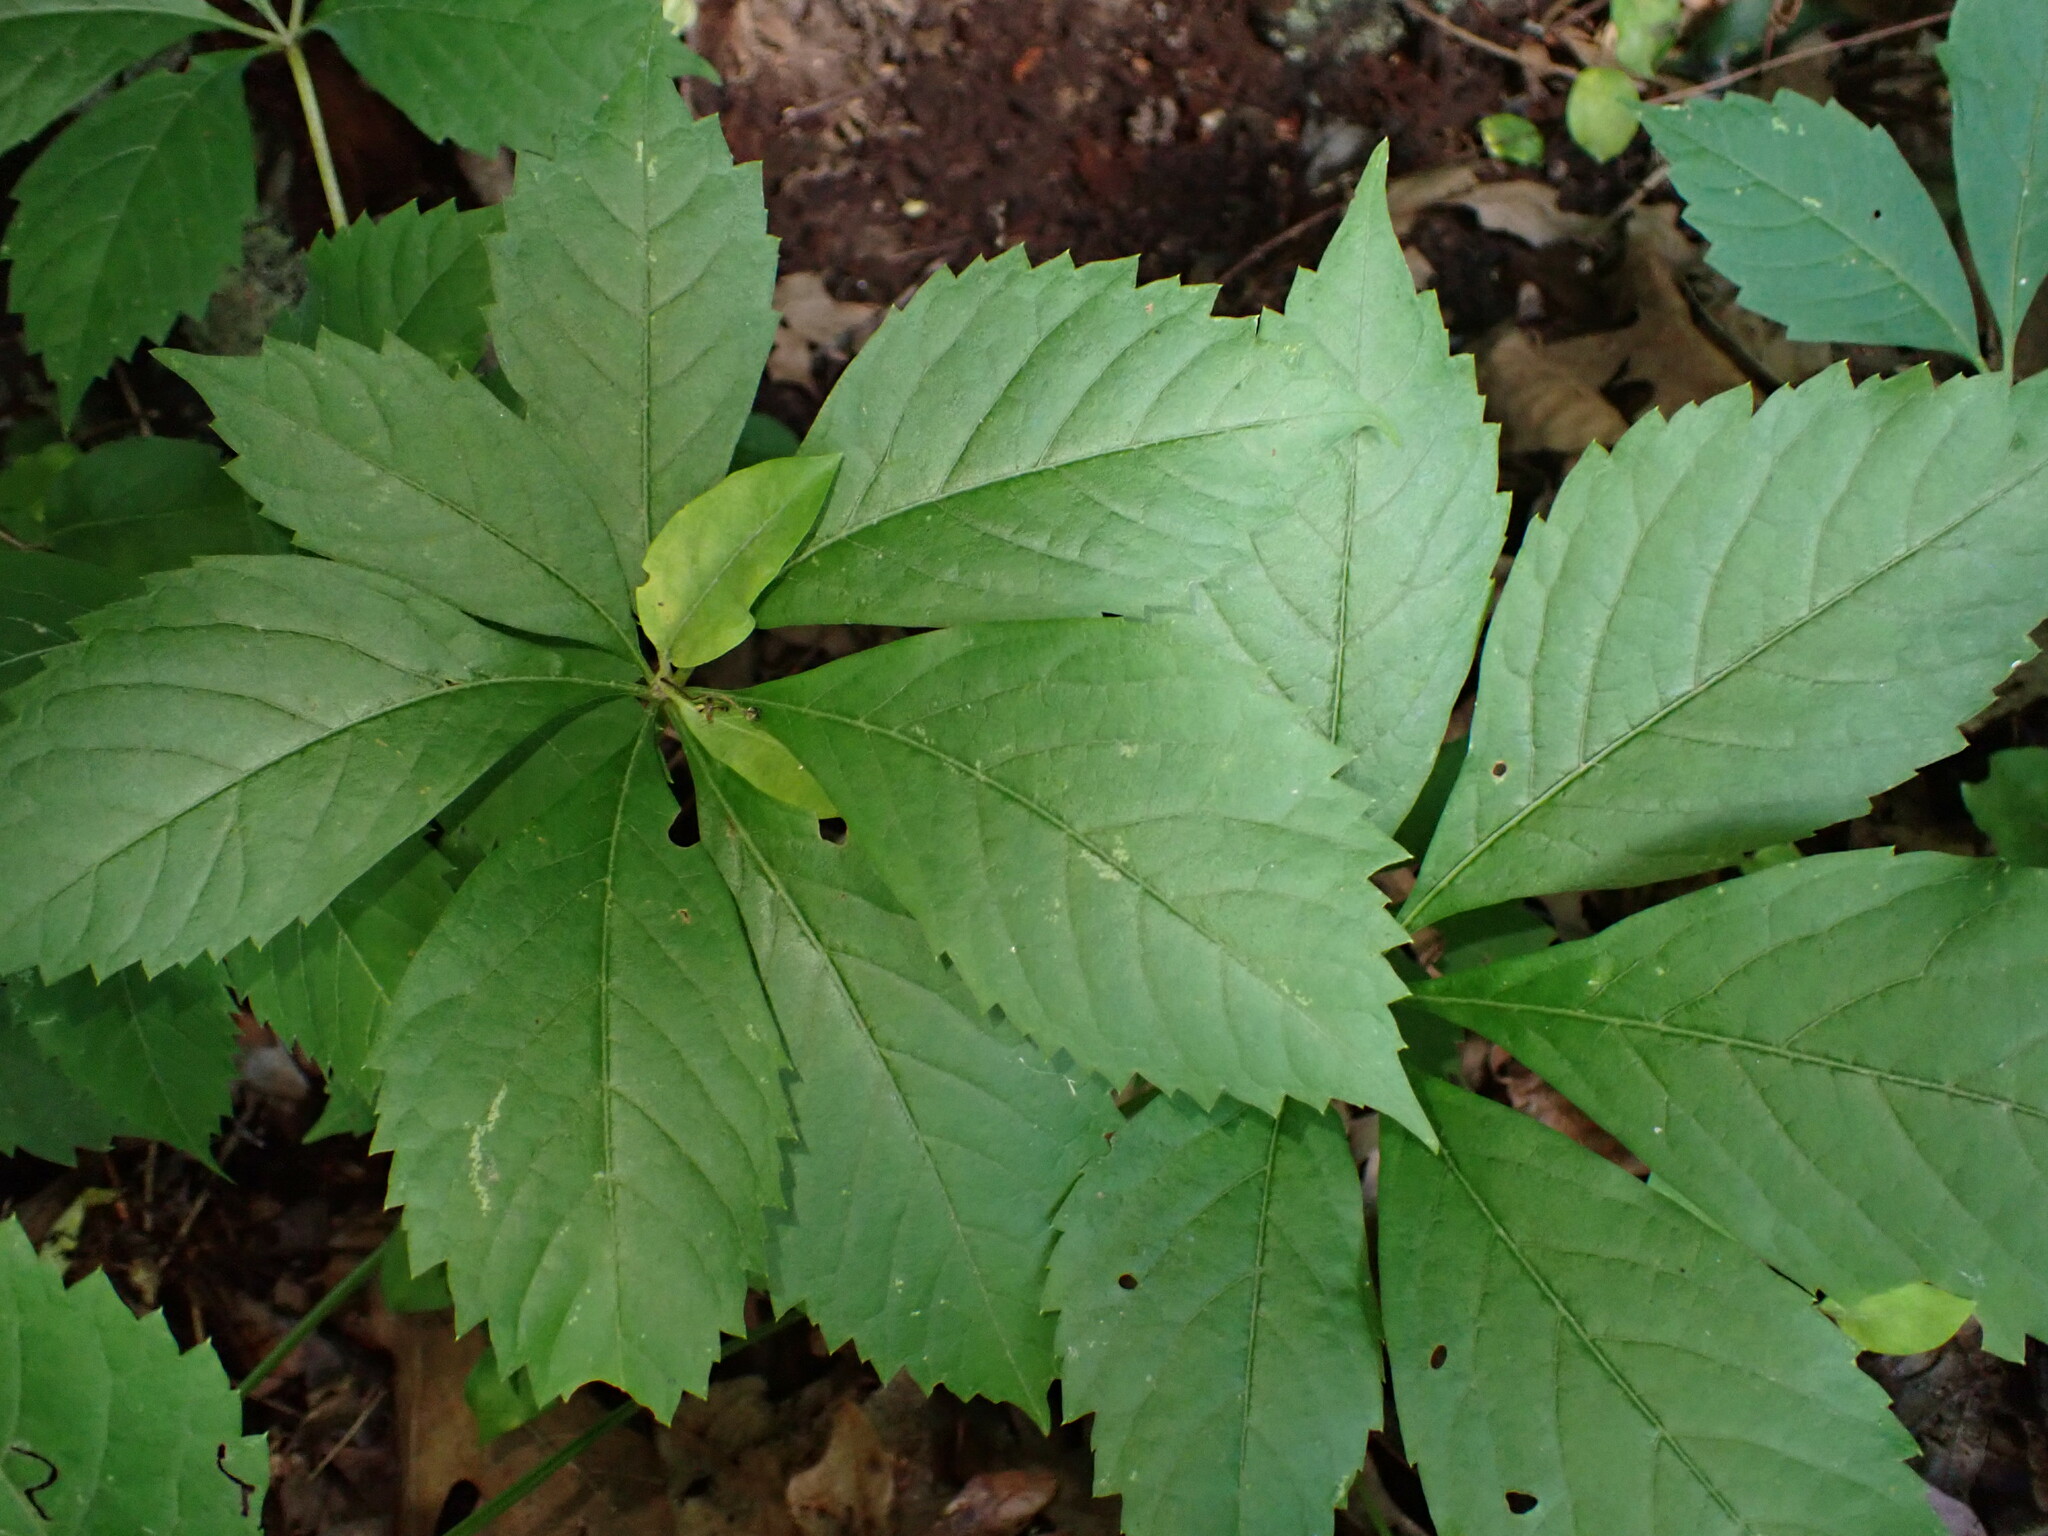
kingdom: Plantae
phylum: Tracheophyta
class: Magnoliopsida
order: Vitales
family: Vitaceae
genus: Parthenocissus
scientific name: Parthenocissus quinquefolia
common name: Virginia-creeper
